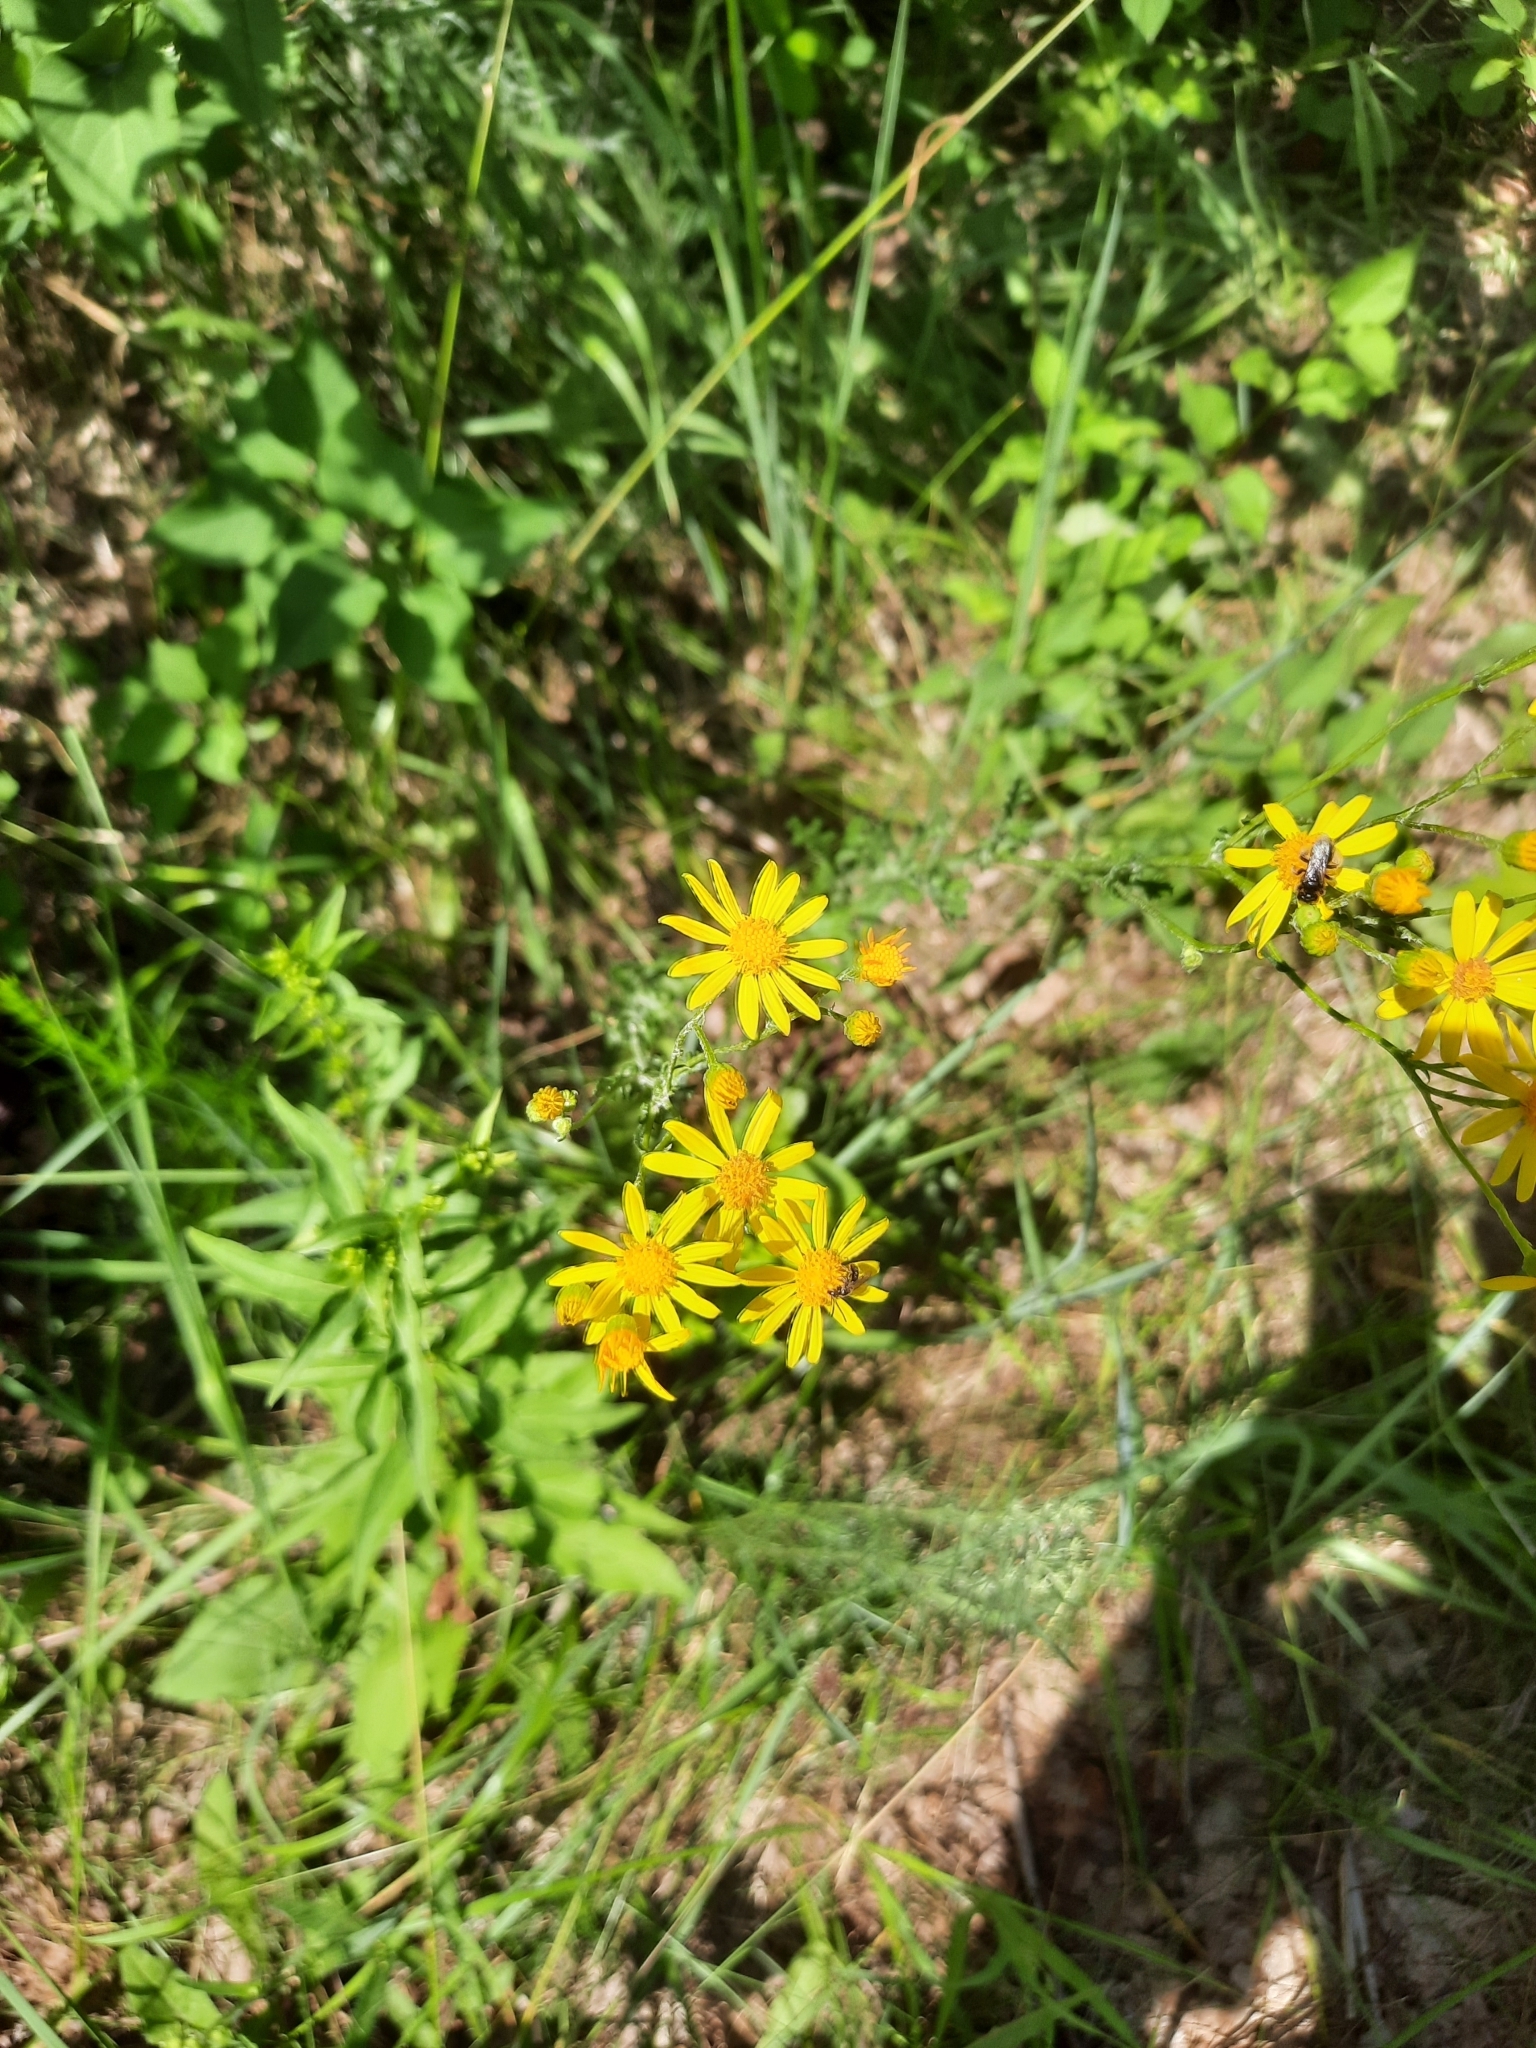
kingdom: Plantae
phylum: Tracheophyta
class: Magnoliopsida
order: Asterales
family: Asteraceae
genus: Jacobaea
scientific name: Jacobaea vulgaris
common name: Stinking willie
